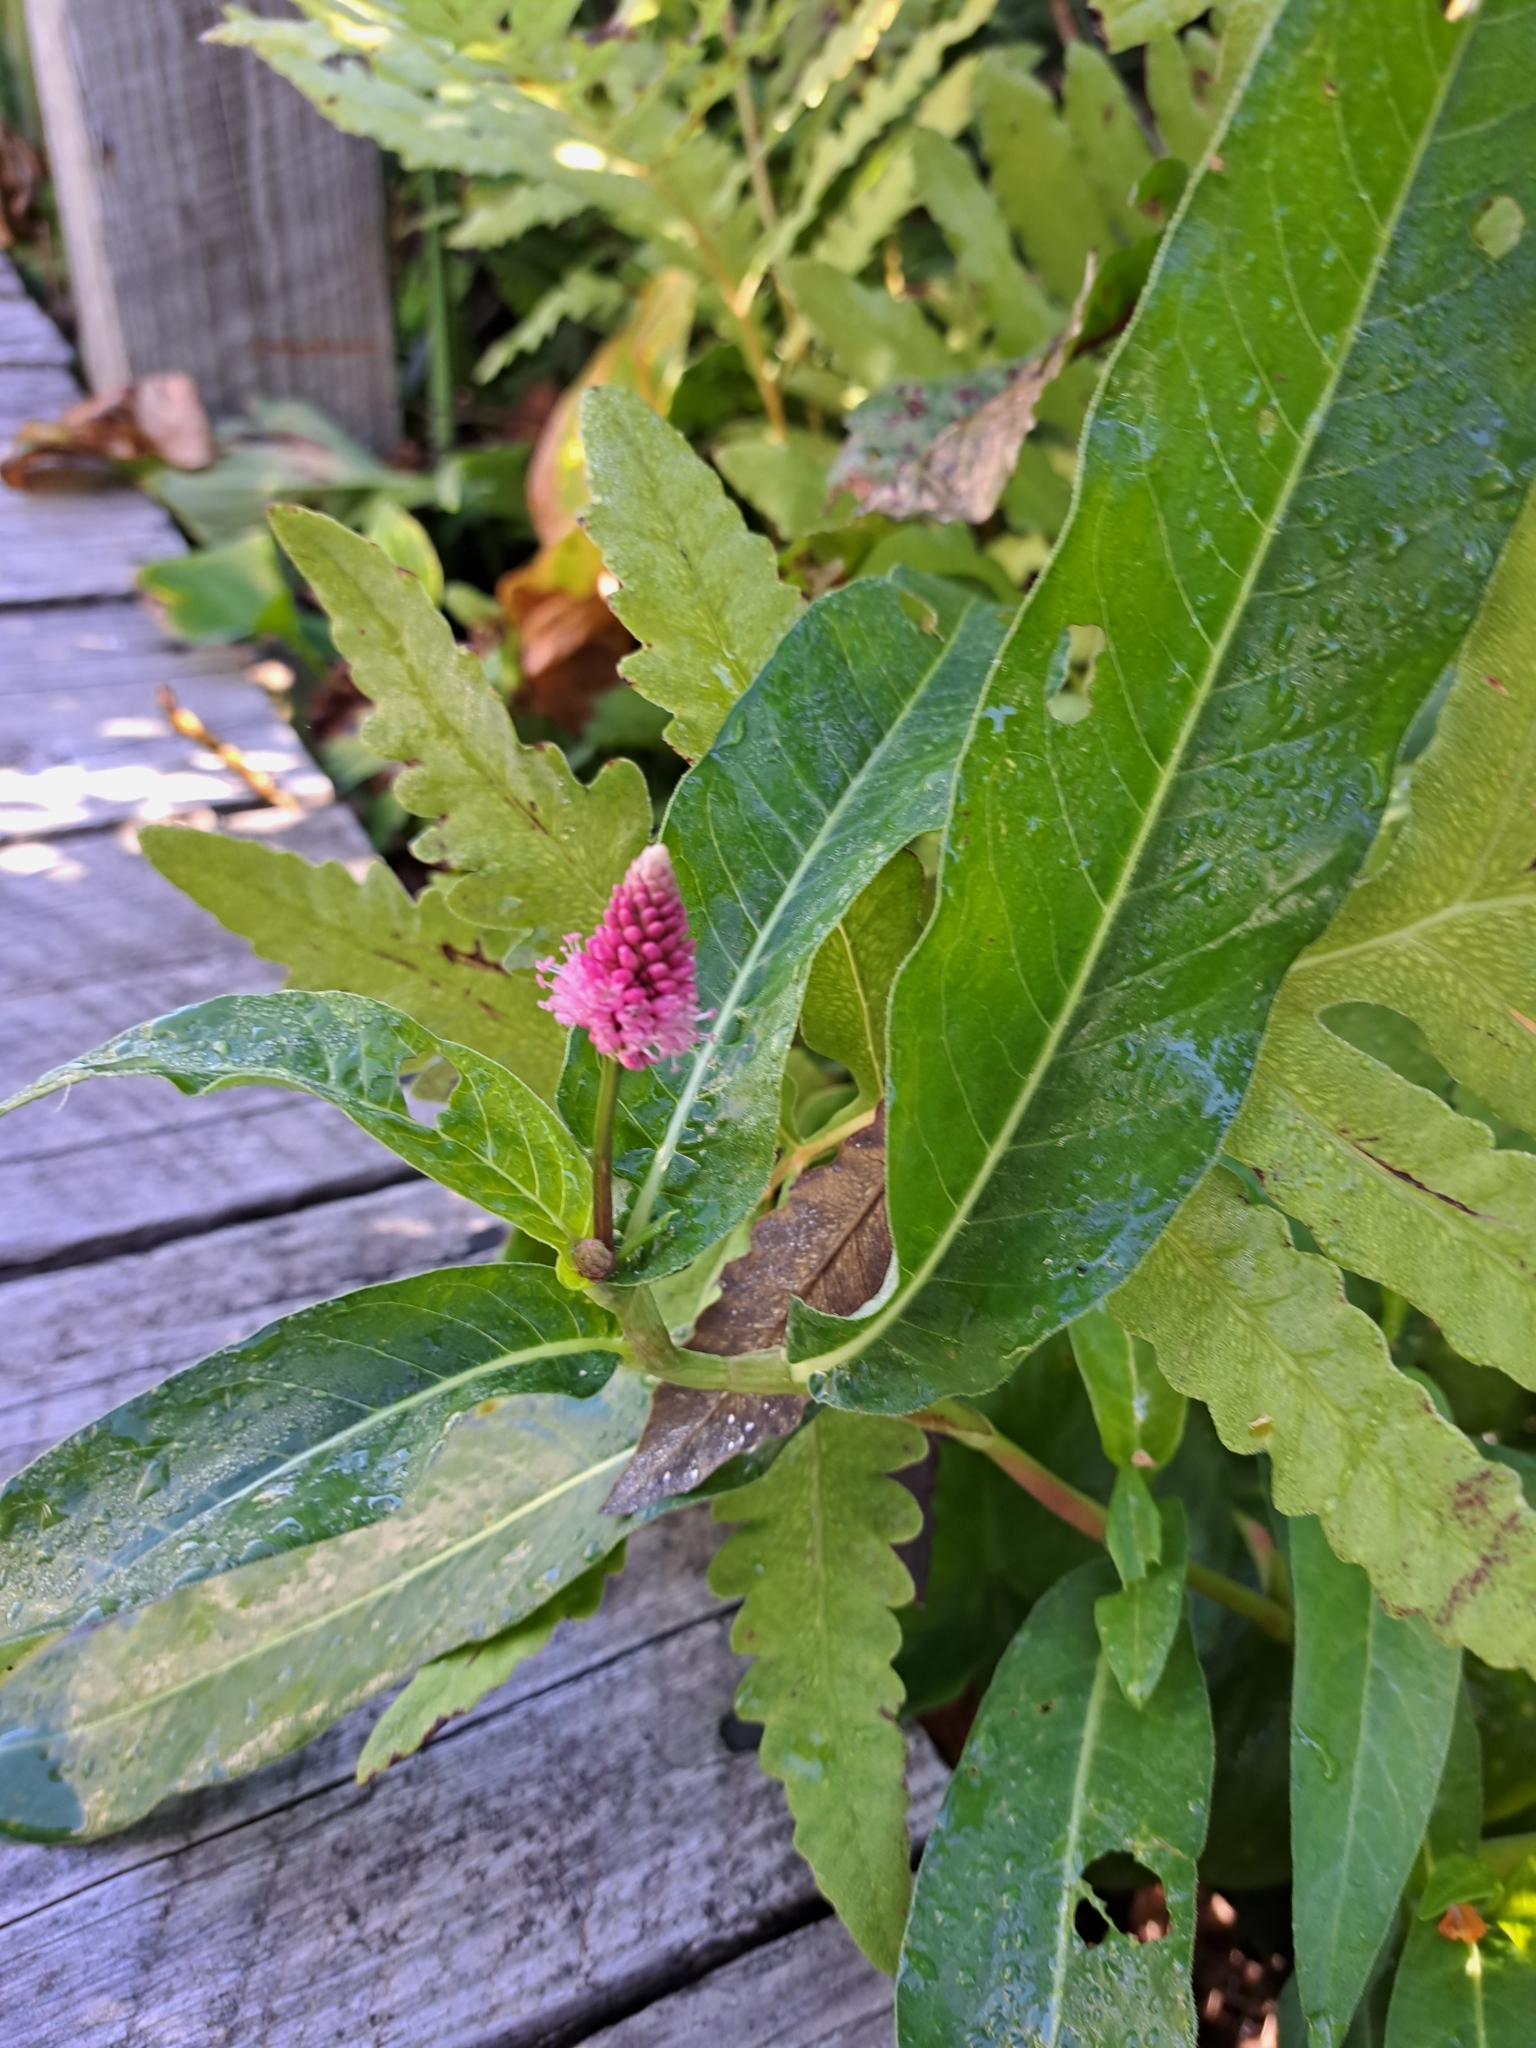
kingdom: Plantae
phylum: Tracheophyta
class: Magnoliopsida
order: Caryophyllales
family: Polygonaceae
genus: Persicaria
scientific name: Persicaria amphibia
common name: Amphibious bistort
